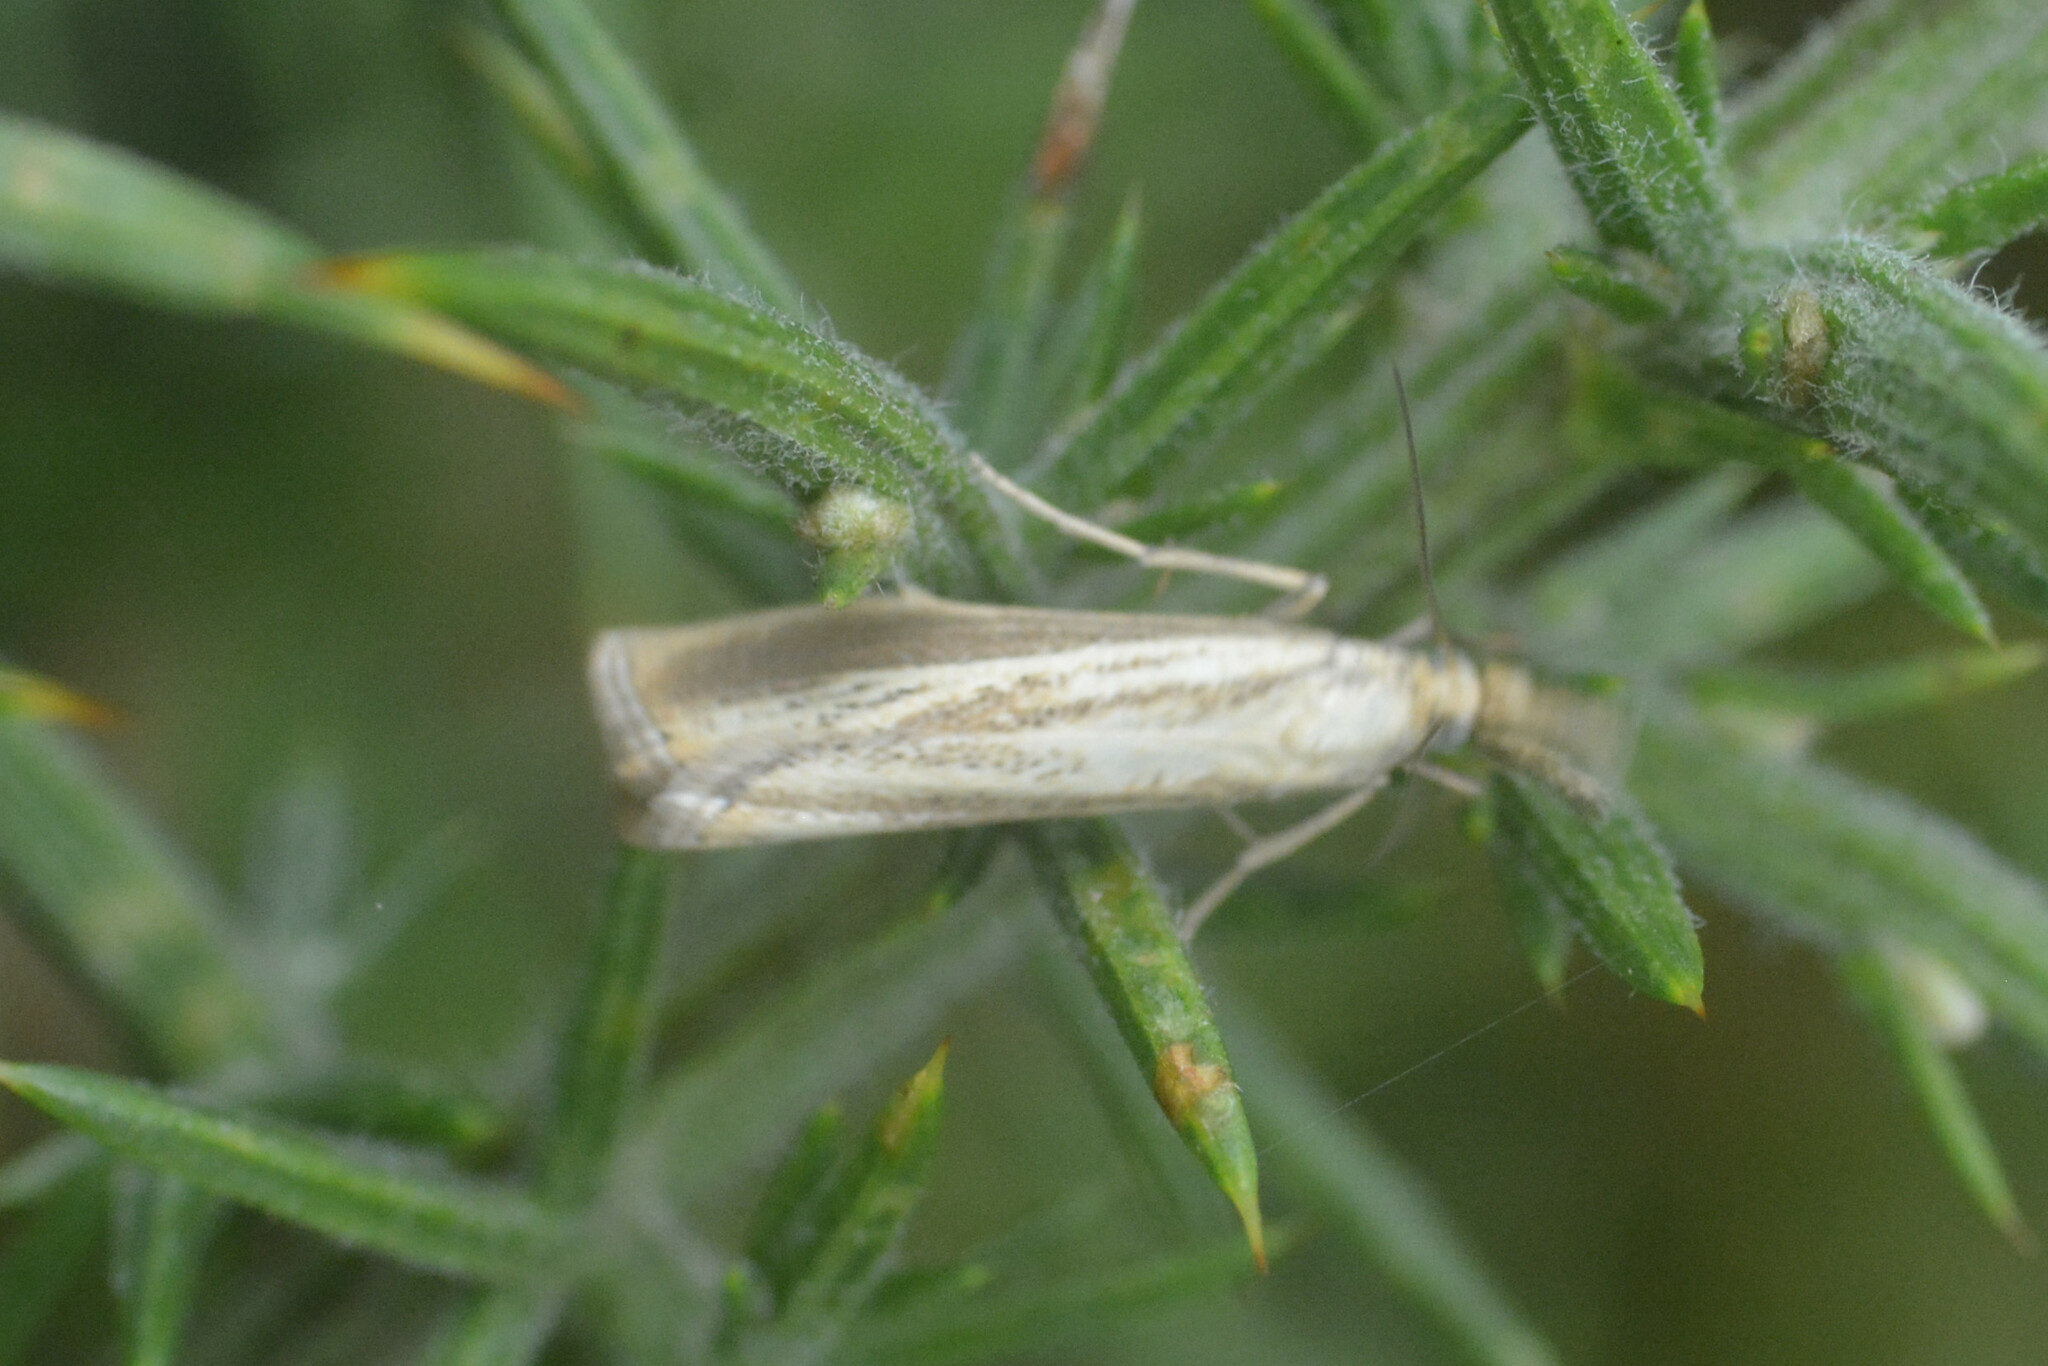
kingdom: Animalia
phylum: Arthropoda
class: Insecta
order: Lepidoptera
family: Crambidae
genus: Agriphila
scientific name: Agriphila straminella
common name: Straw grass-veneer
